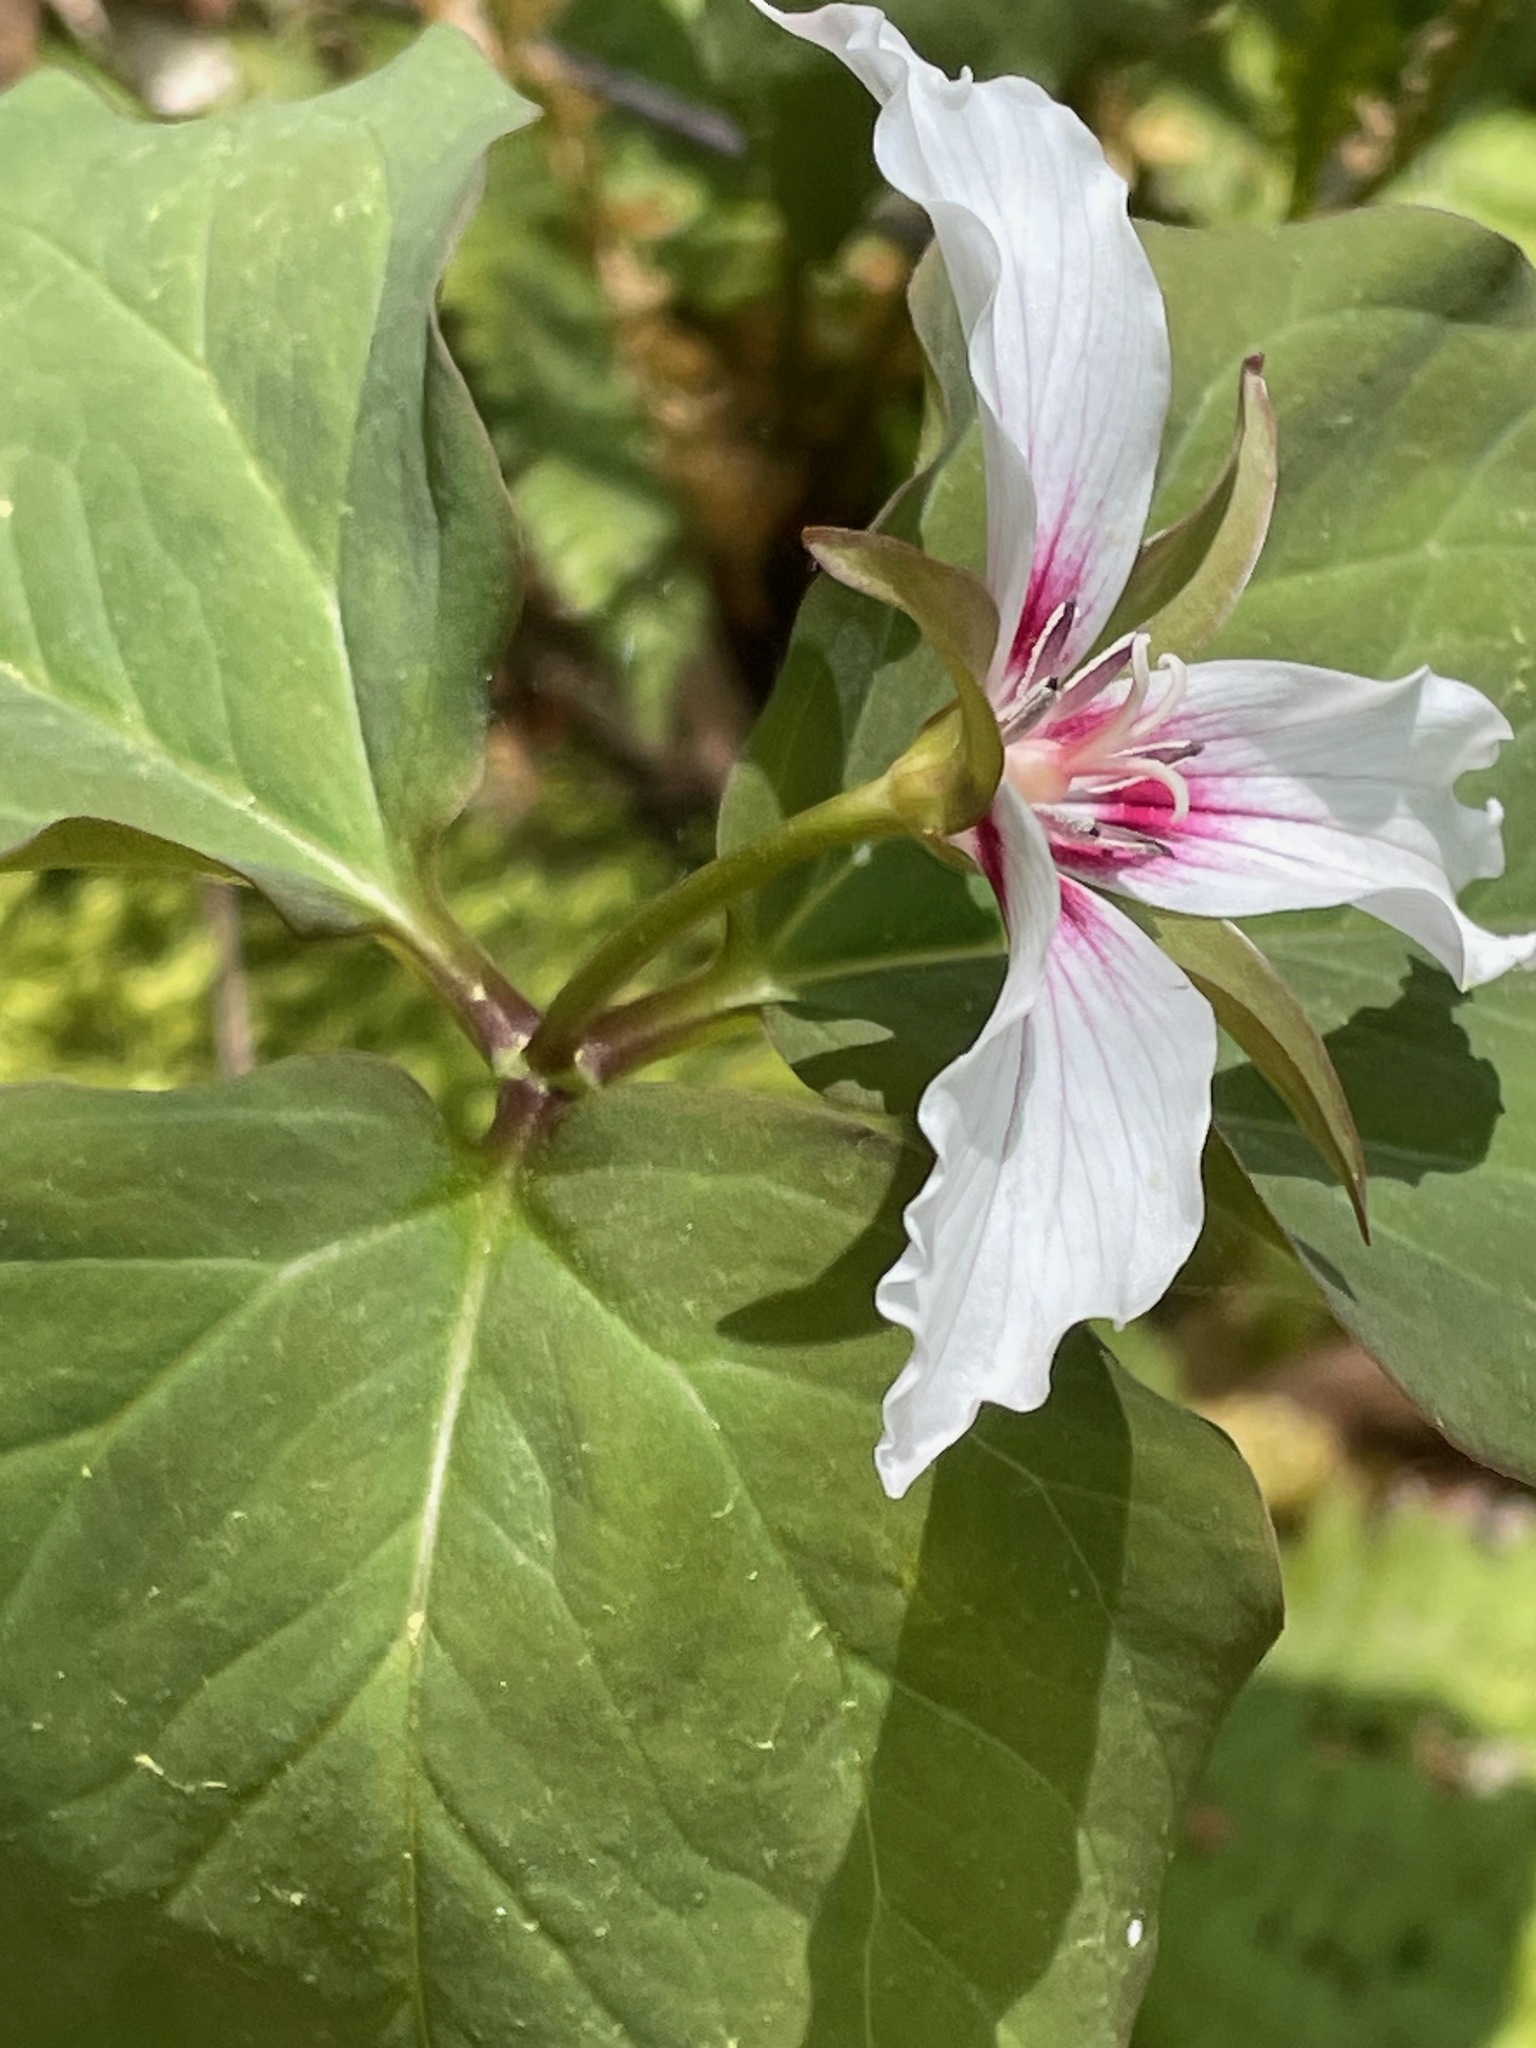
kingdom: Plantae
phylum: Tracheophyta
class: Liliopsida
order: Liliales
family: Melanthiaceae
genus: Trillium
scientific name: Trillium undulatum
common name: Paint trillium
